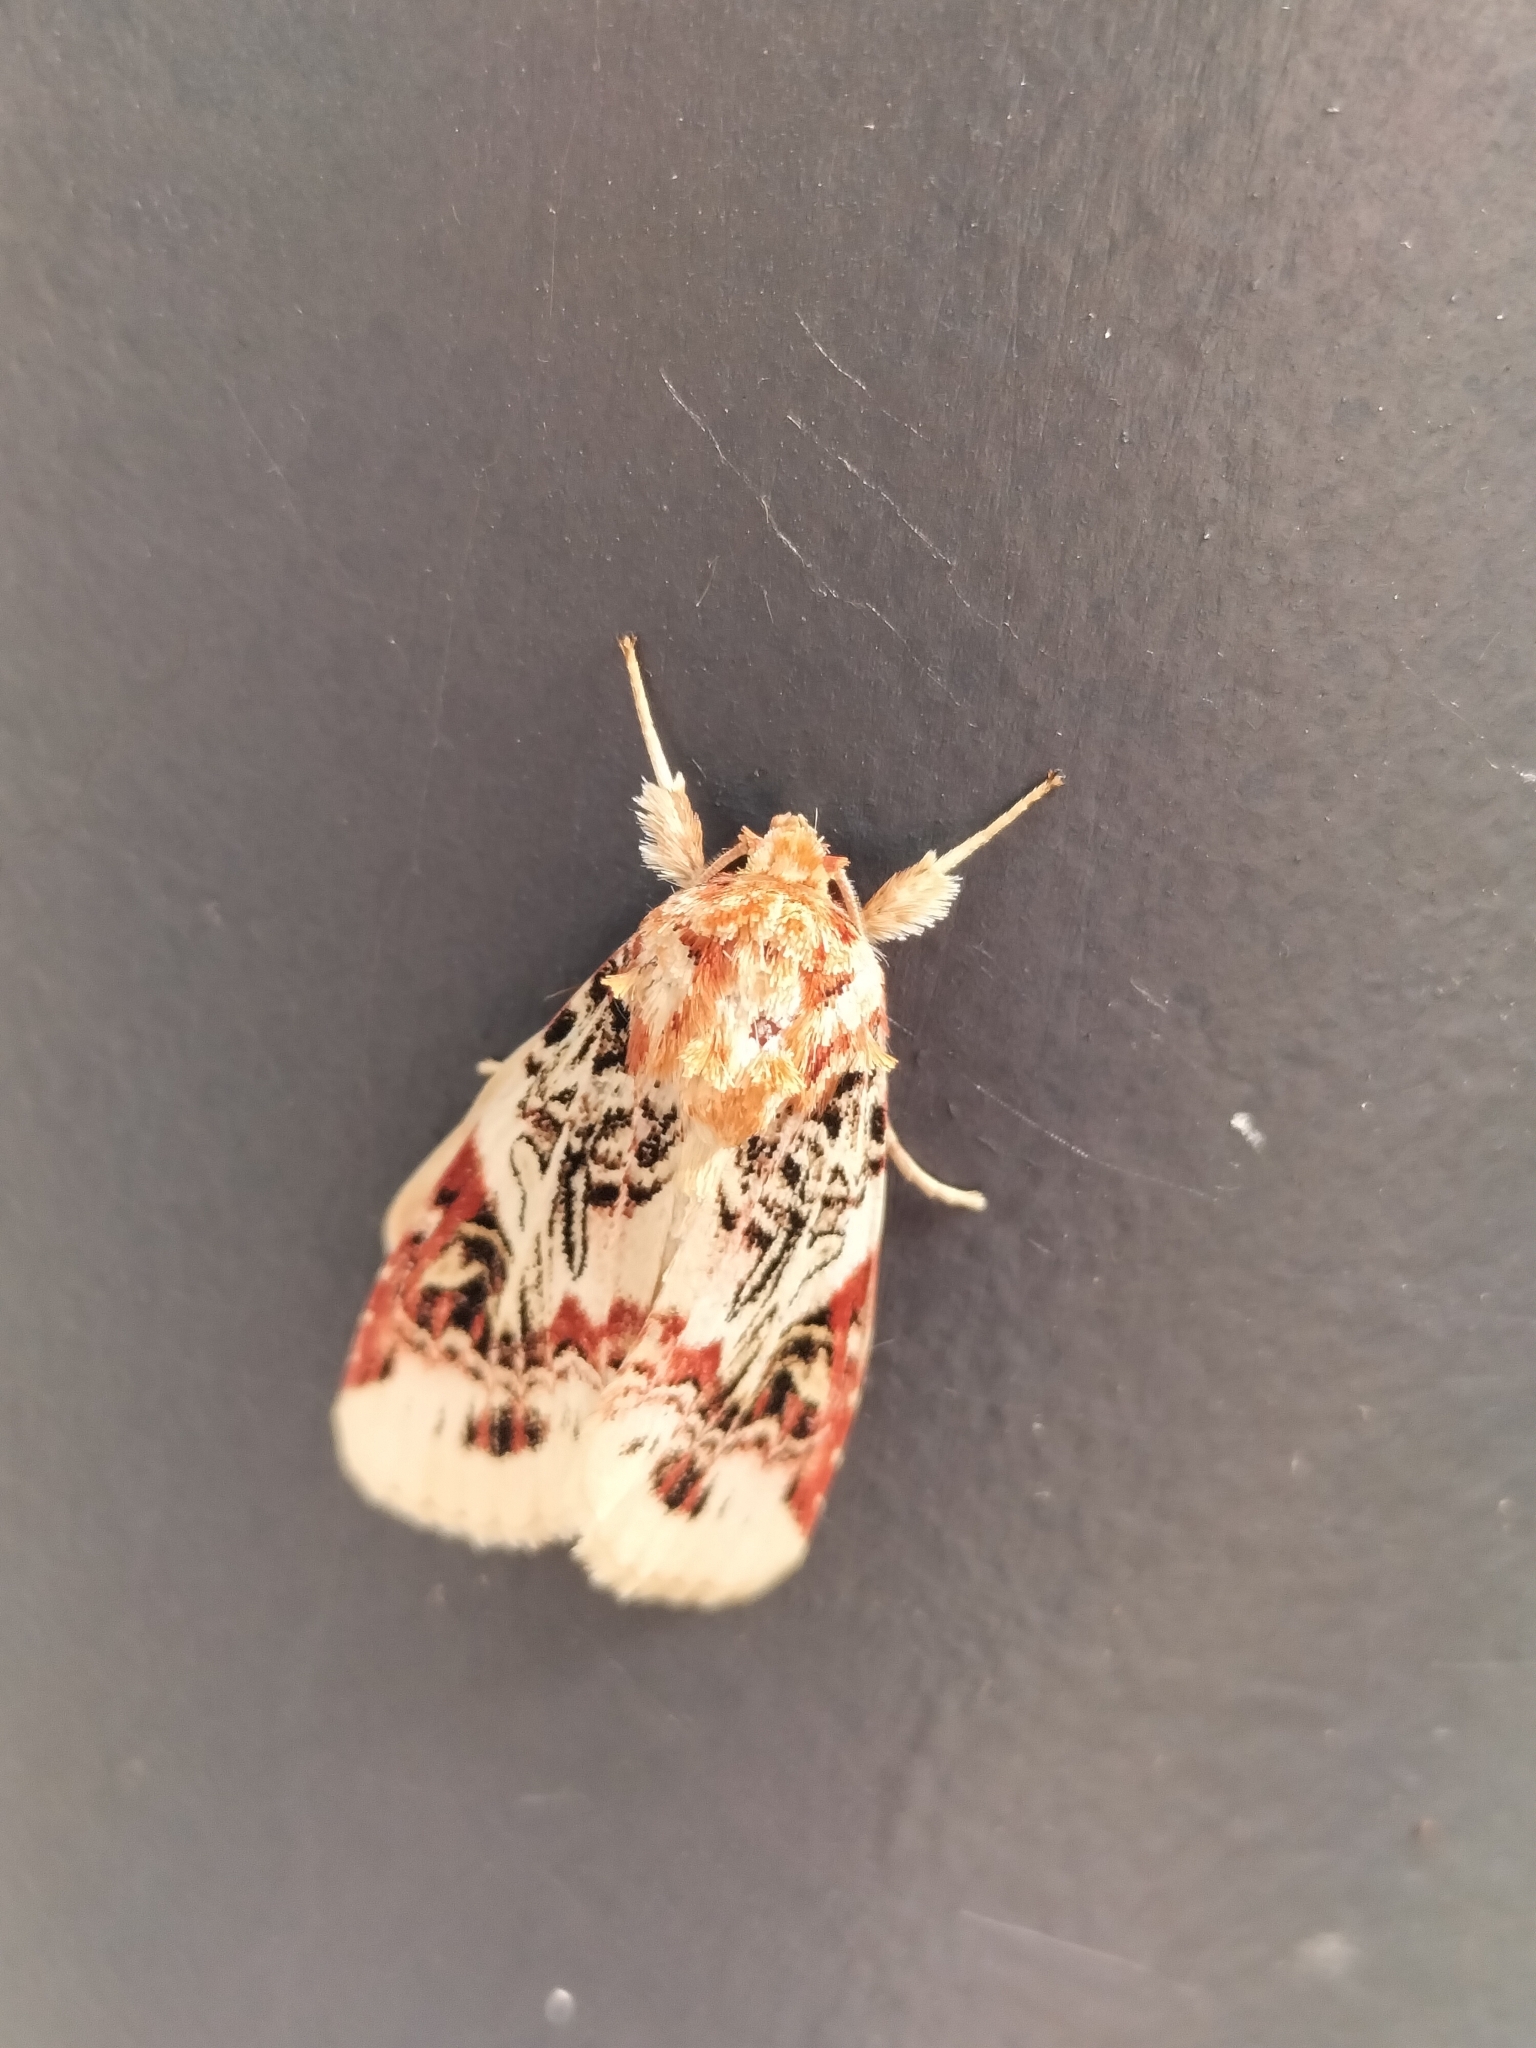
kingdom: Animalia
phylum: Arthropoda
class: Insecta
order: Lepidoptera
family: Noctuidae
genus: Spodoptera
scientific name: Spodoptera picta
